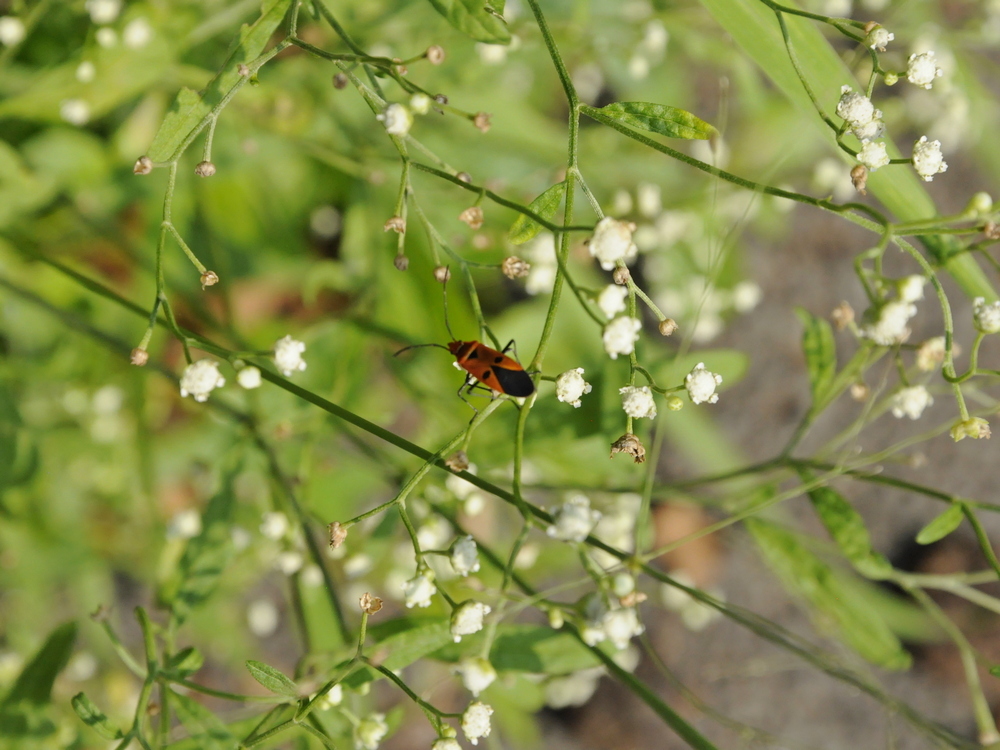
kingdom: Animalia
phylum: Arthropoda
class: Insecta
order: Hemiptera
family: Pyrrhocoridae
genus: Dysdercus
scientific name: Dysdercus cingulatus
